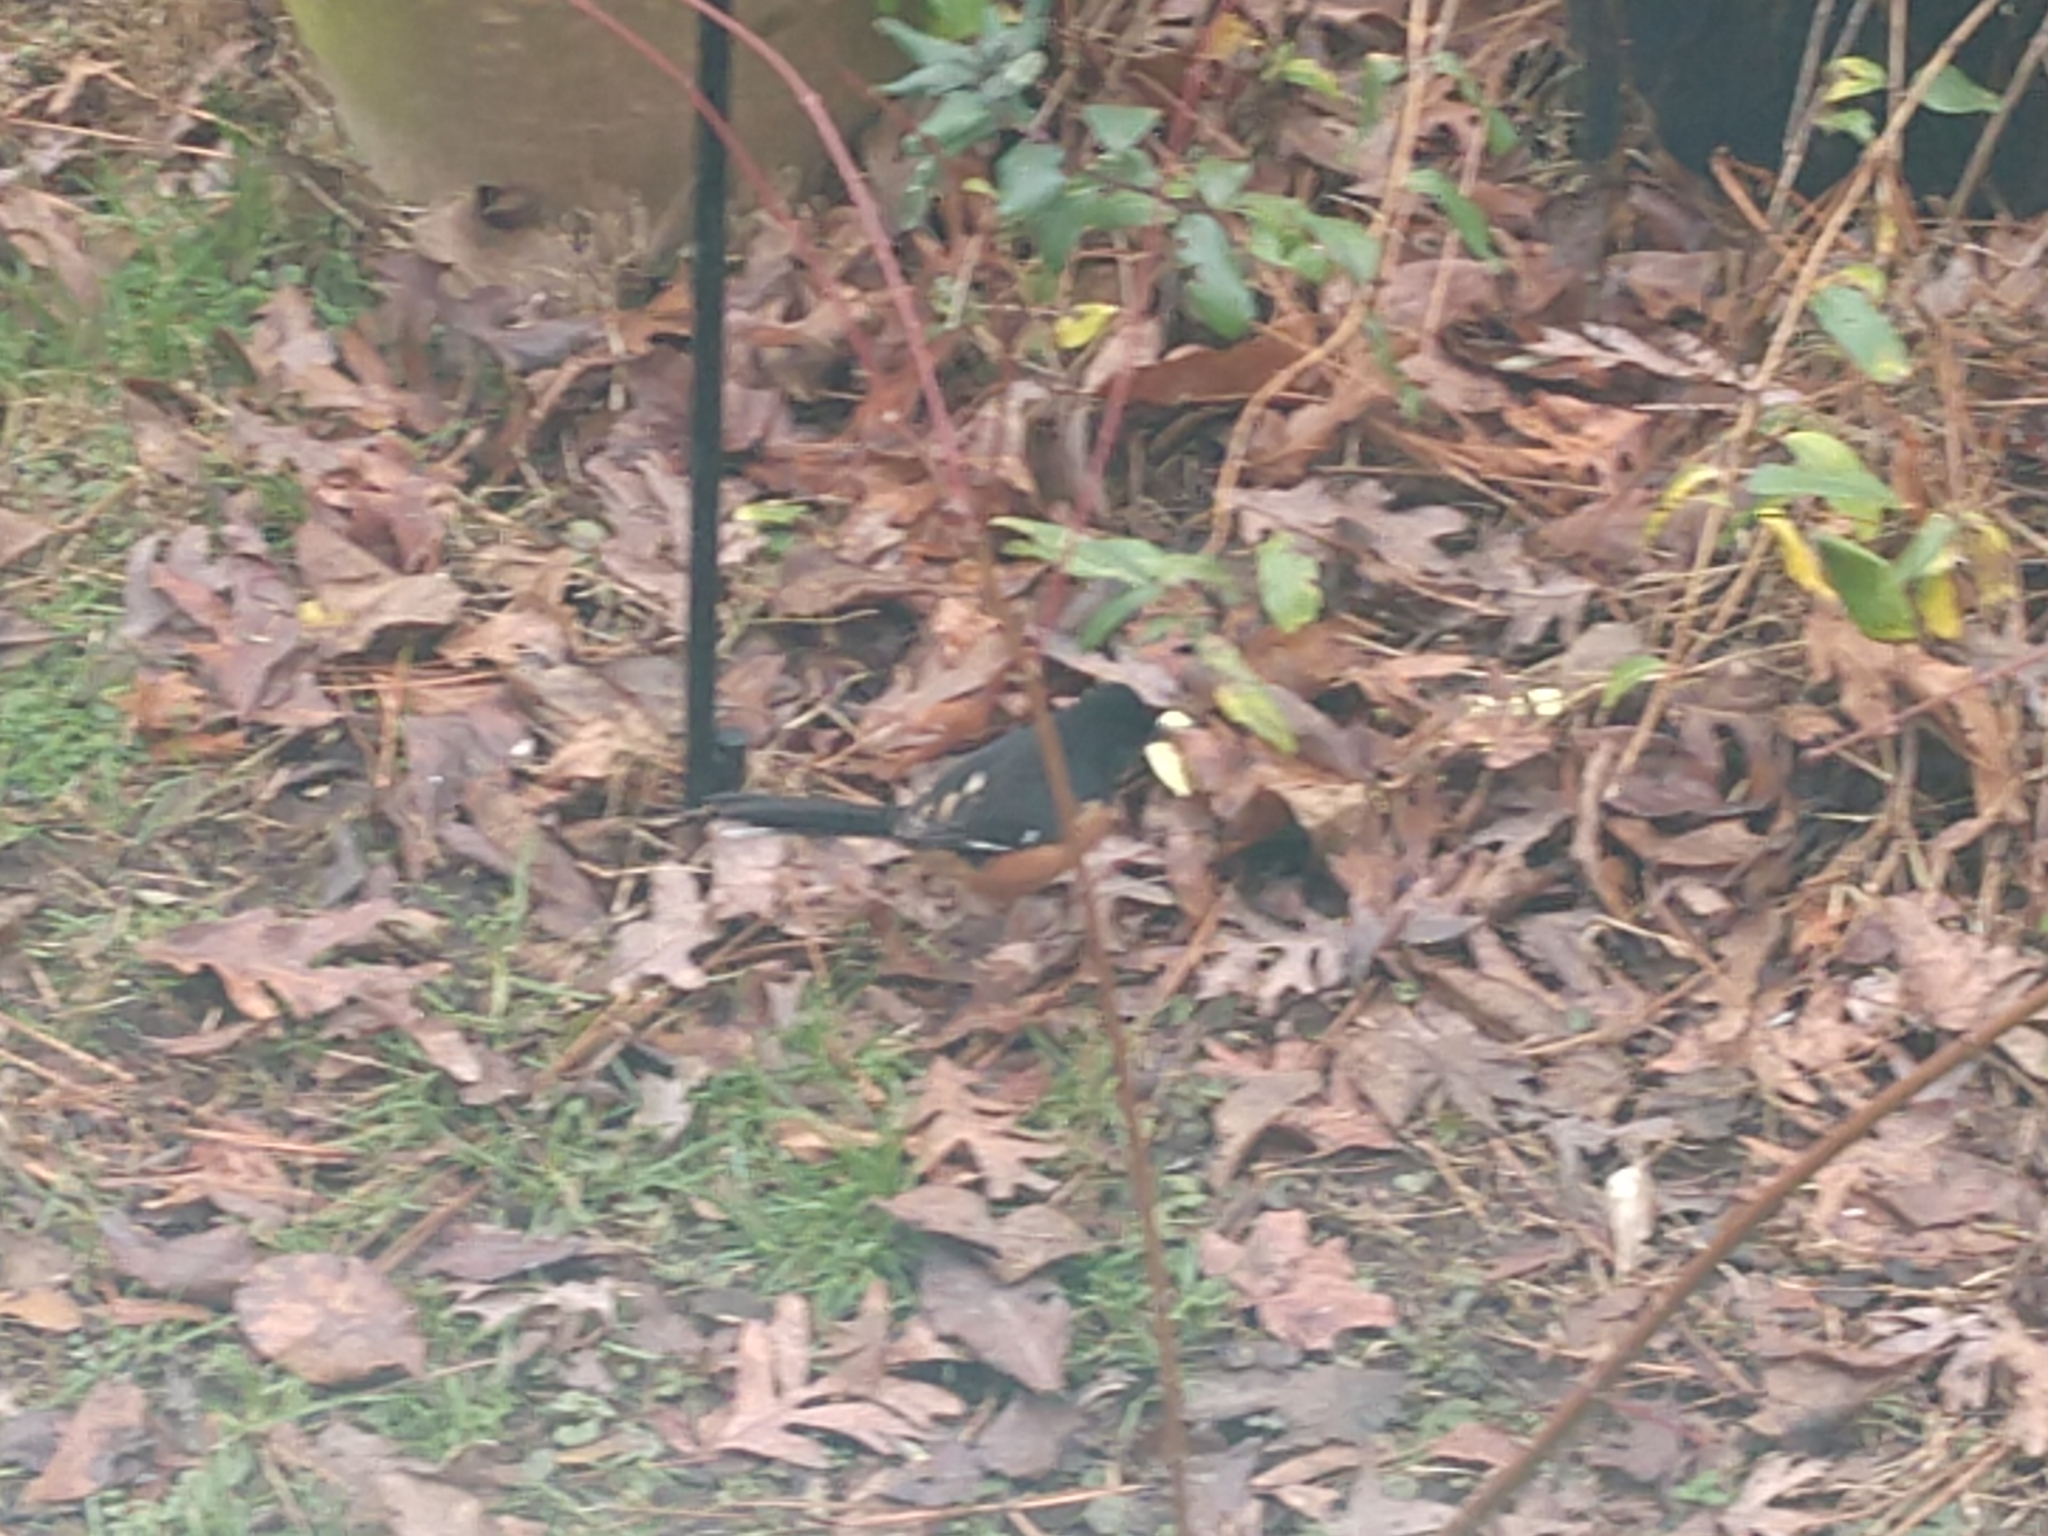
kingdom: Animalia
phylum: Chordata
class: Aves
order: Passeriformes
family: Passerellidae
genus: Pipilo
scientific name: Pipilo erythrophthalmus
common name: Eastern towhee
